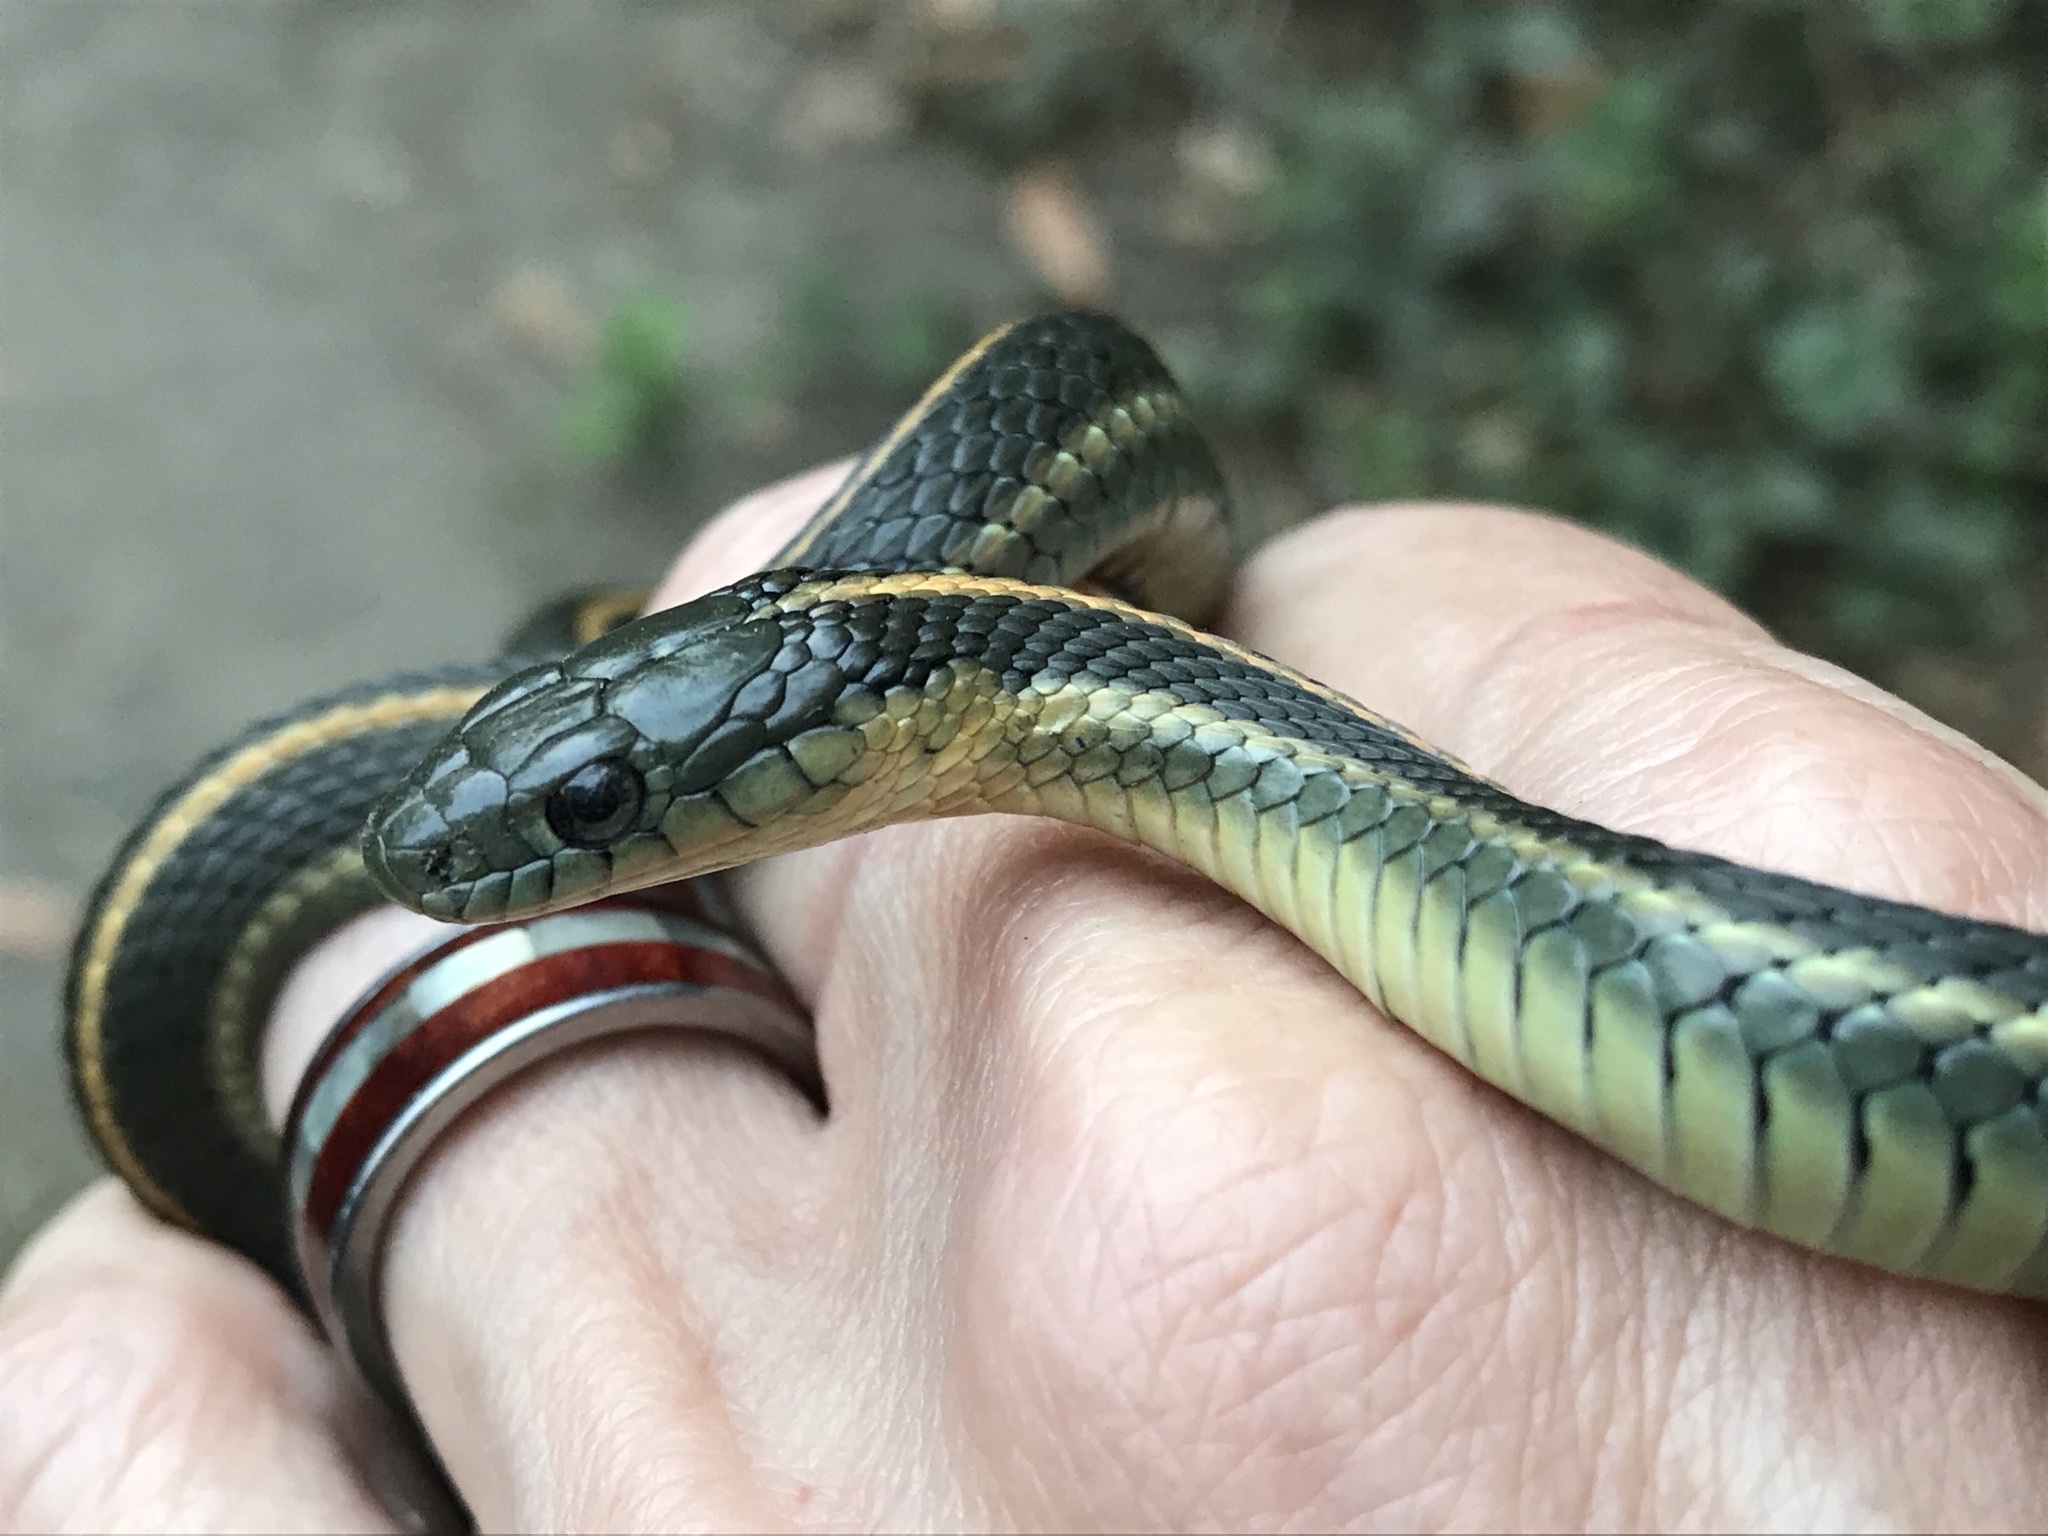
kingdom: Animalia
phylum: Chordata
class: Squamata
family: Colubridae
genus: Thamnophis
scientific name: Thamnophis atratus
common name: Pacific coast aquatic garter snake
